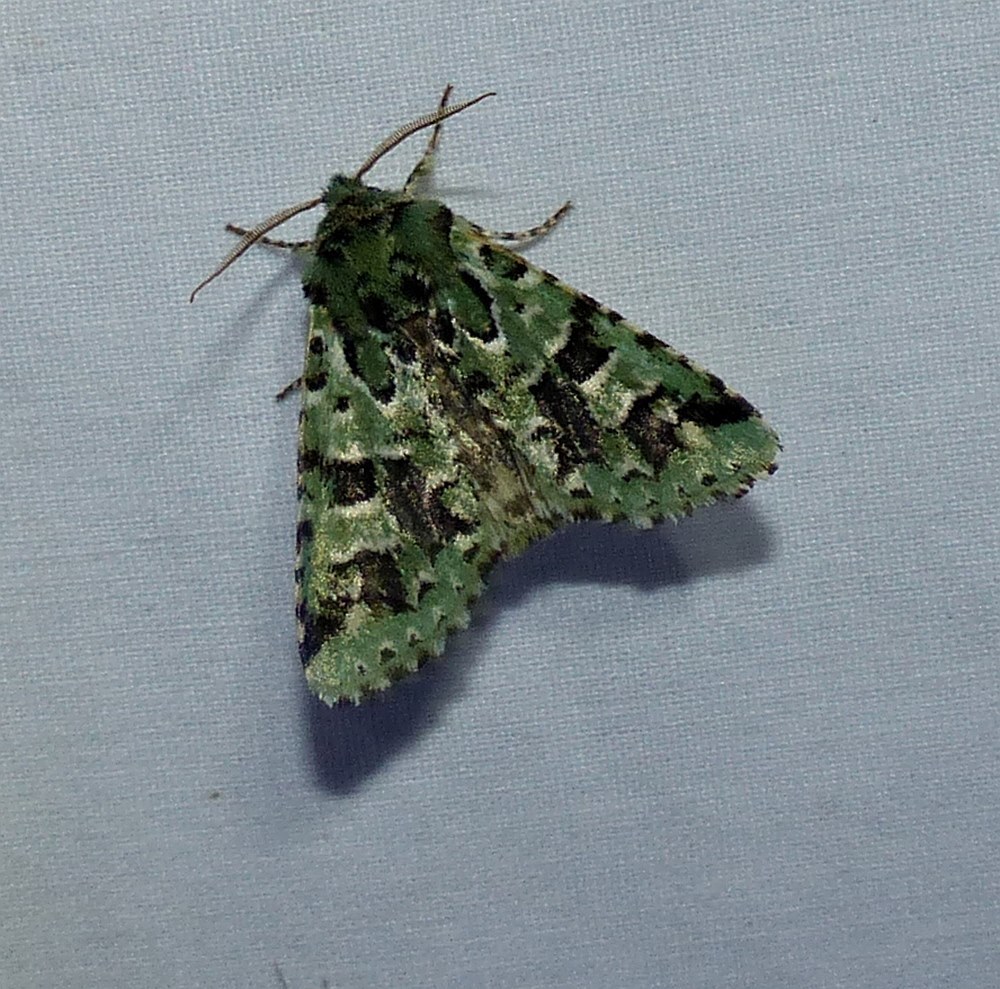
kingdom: Animalia
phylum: Arthropoda
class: Insecta
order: Lepidoptera
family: Noctuidae
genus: Feralia
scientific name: Feralia comstocki
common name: Comstock's sallow
